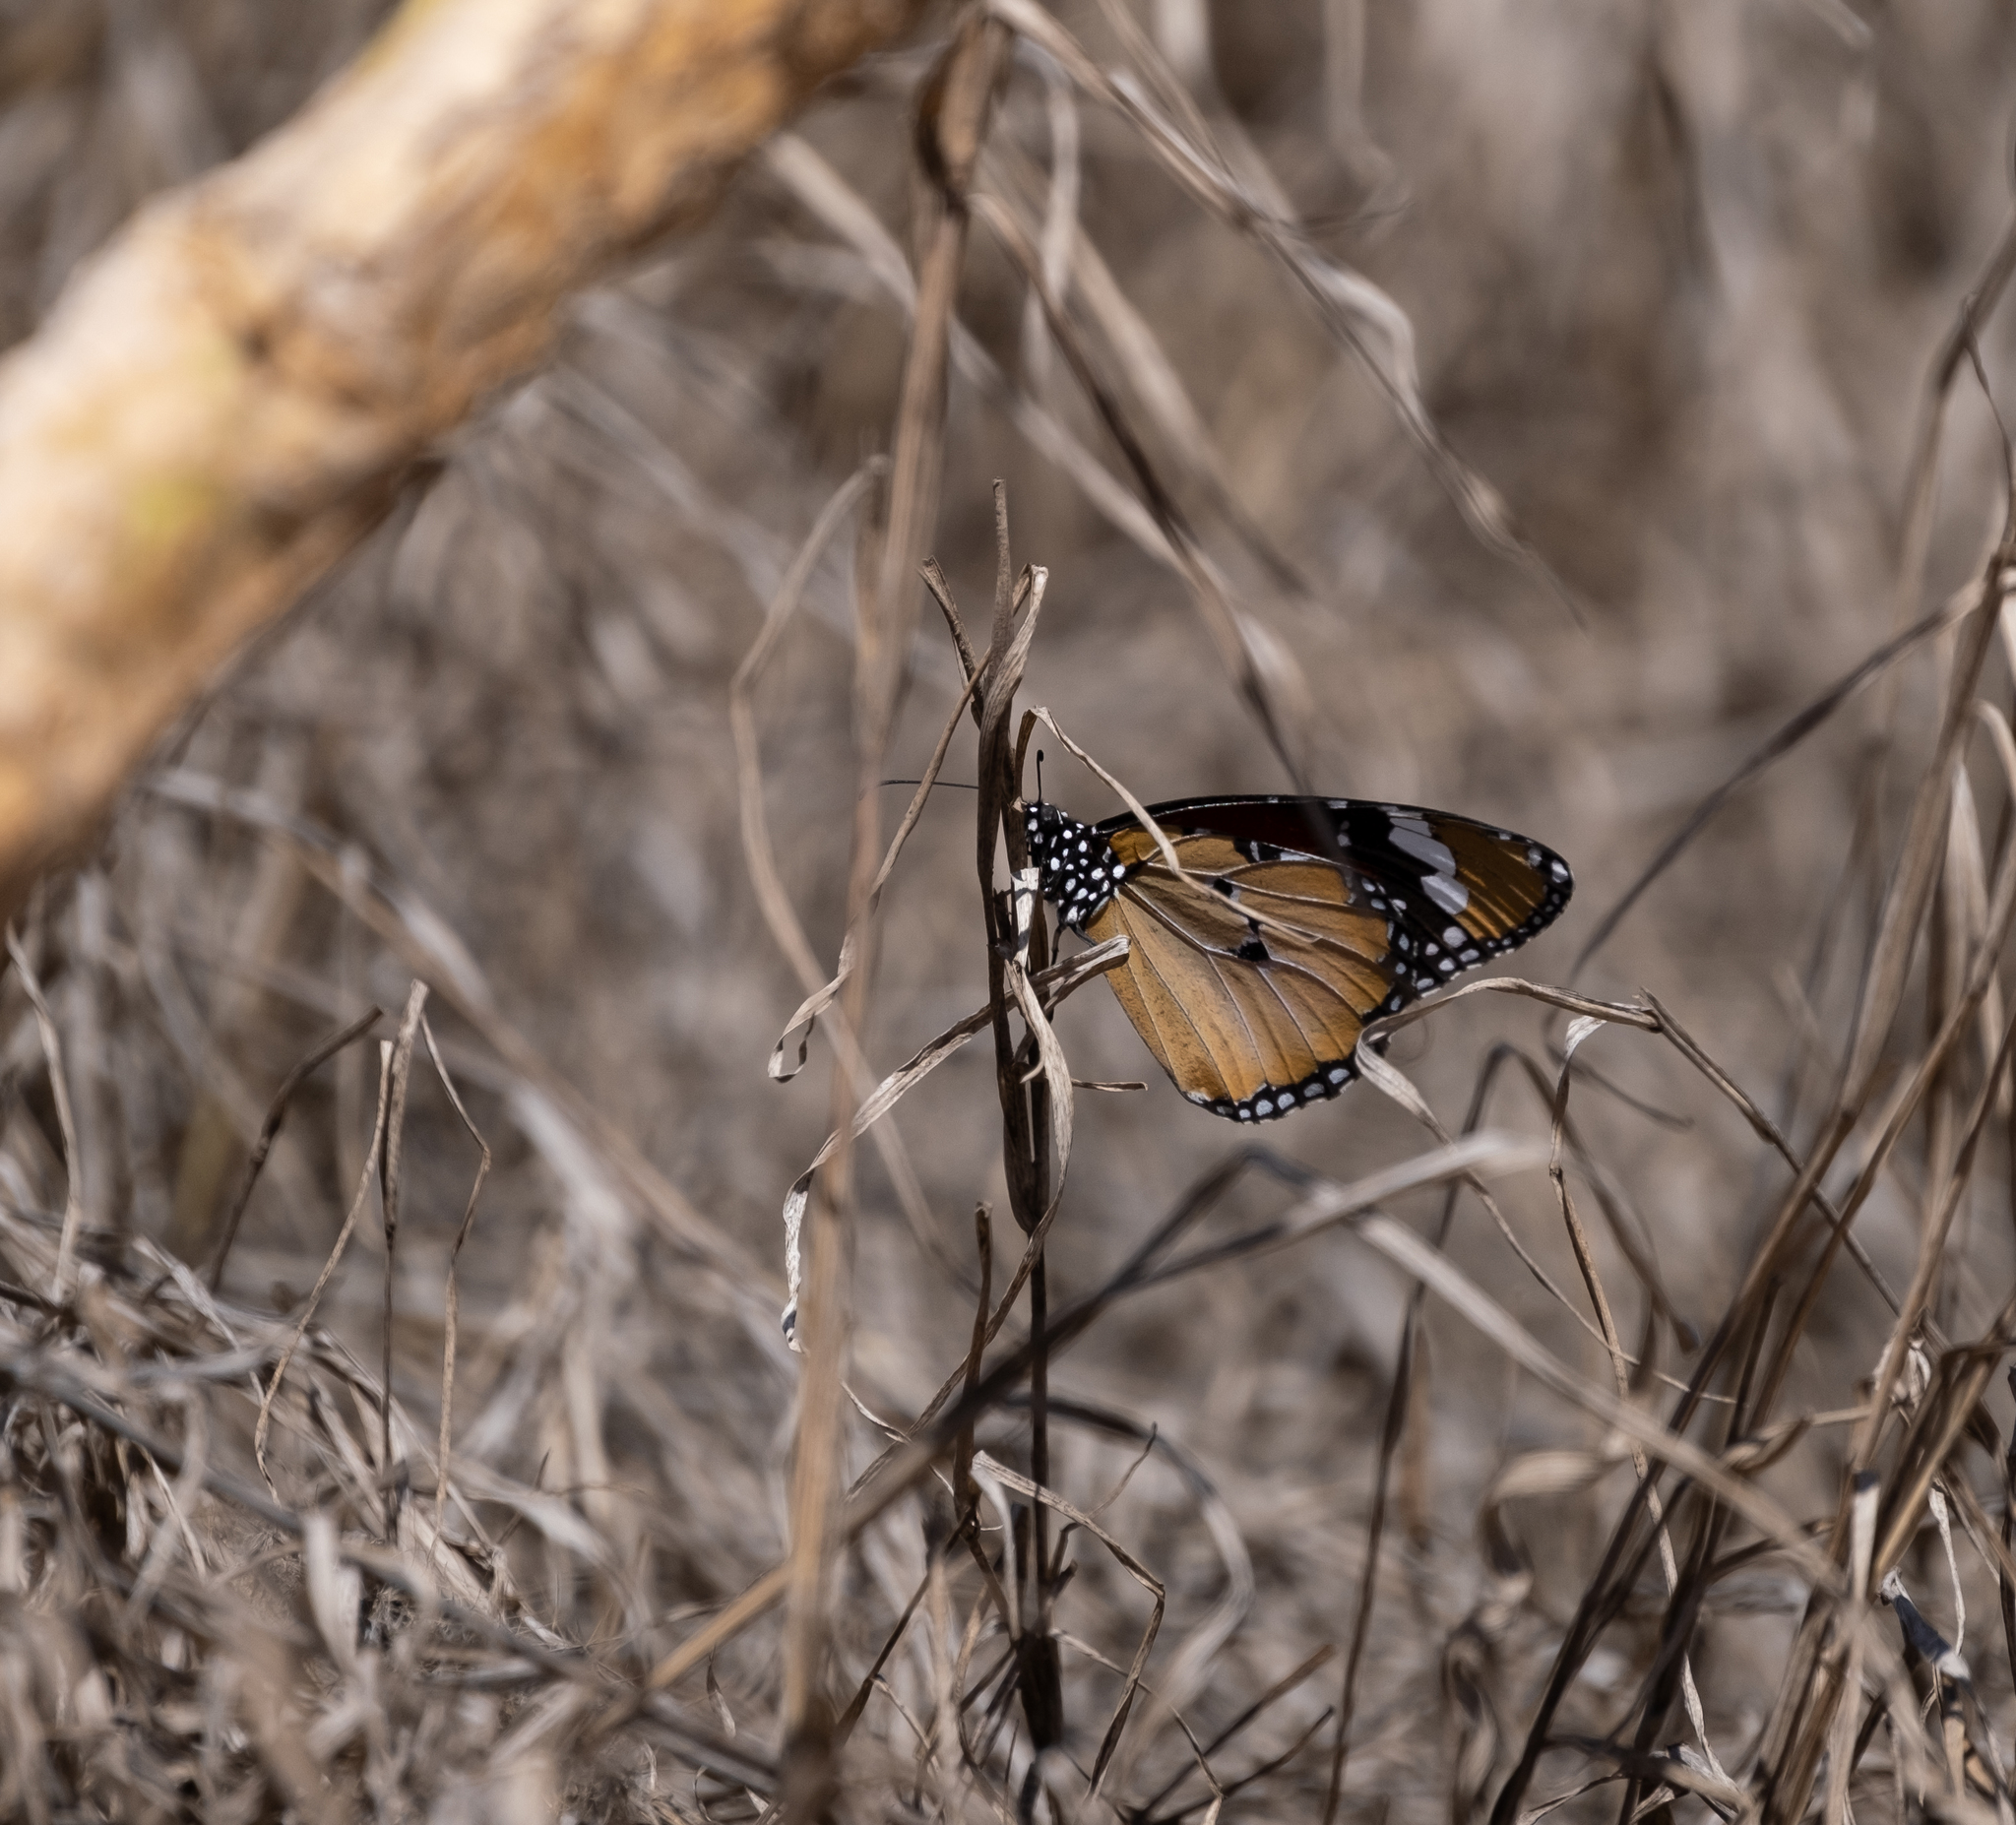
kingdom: Animalia
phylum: Arthropoda
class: Insecta
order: Lepidoptera
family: Nymphalidae
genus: Danaus
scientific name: Danaus chrysippus
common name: Plain tiger
